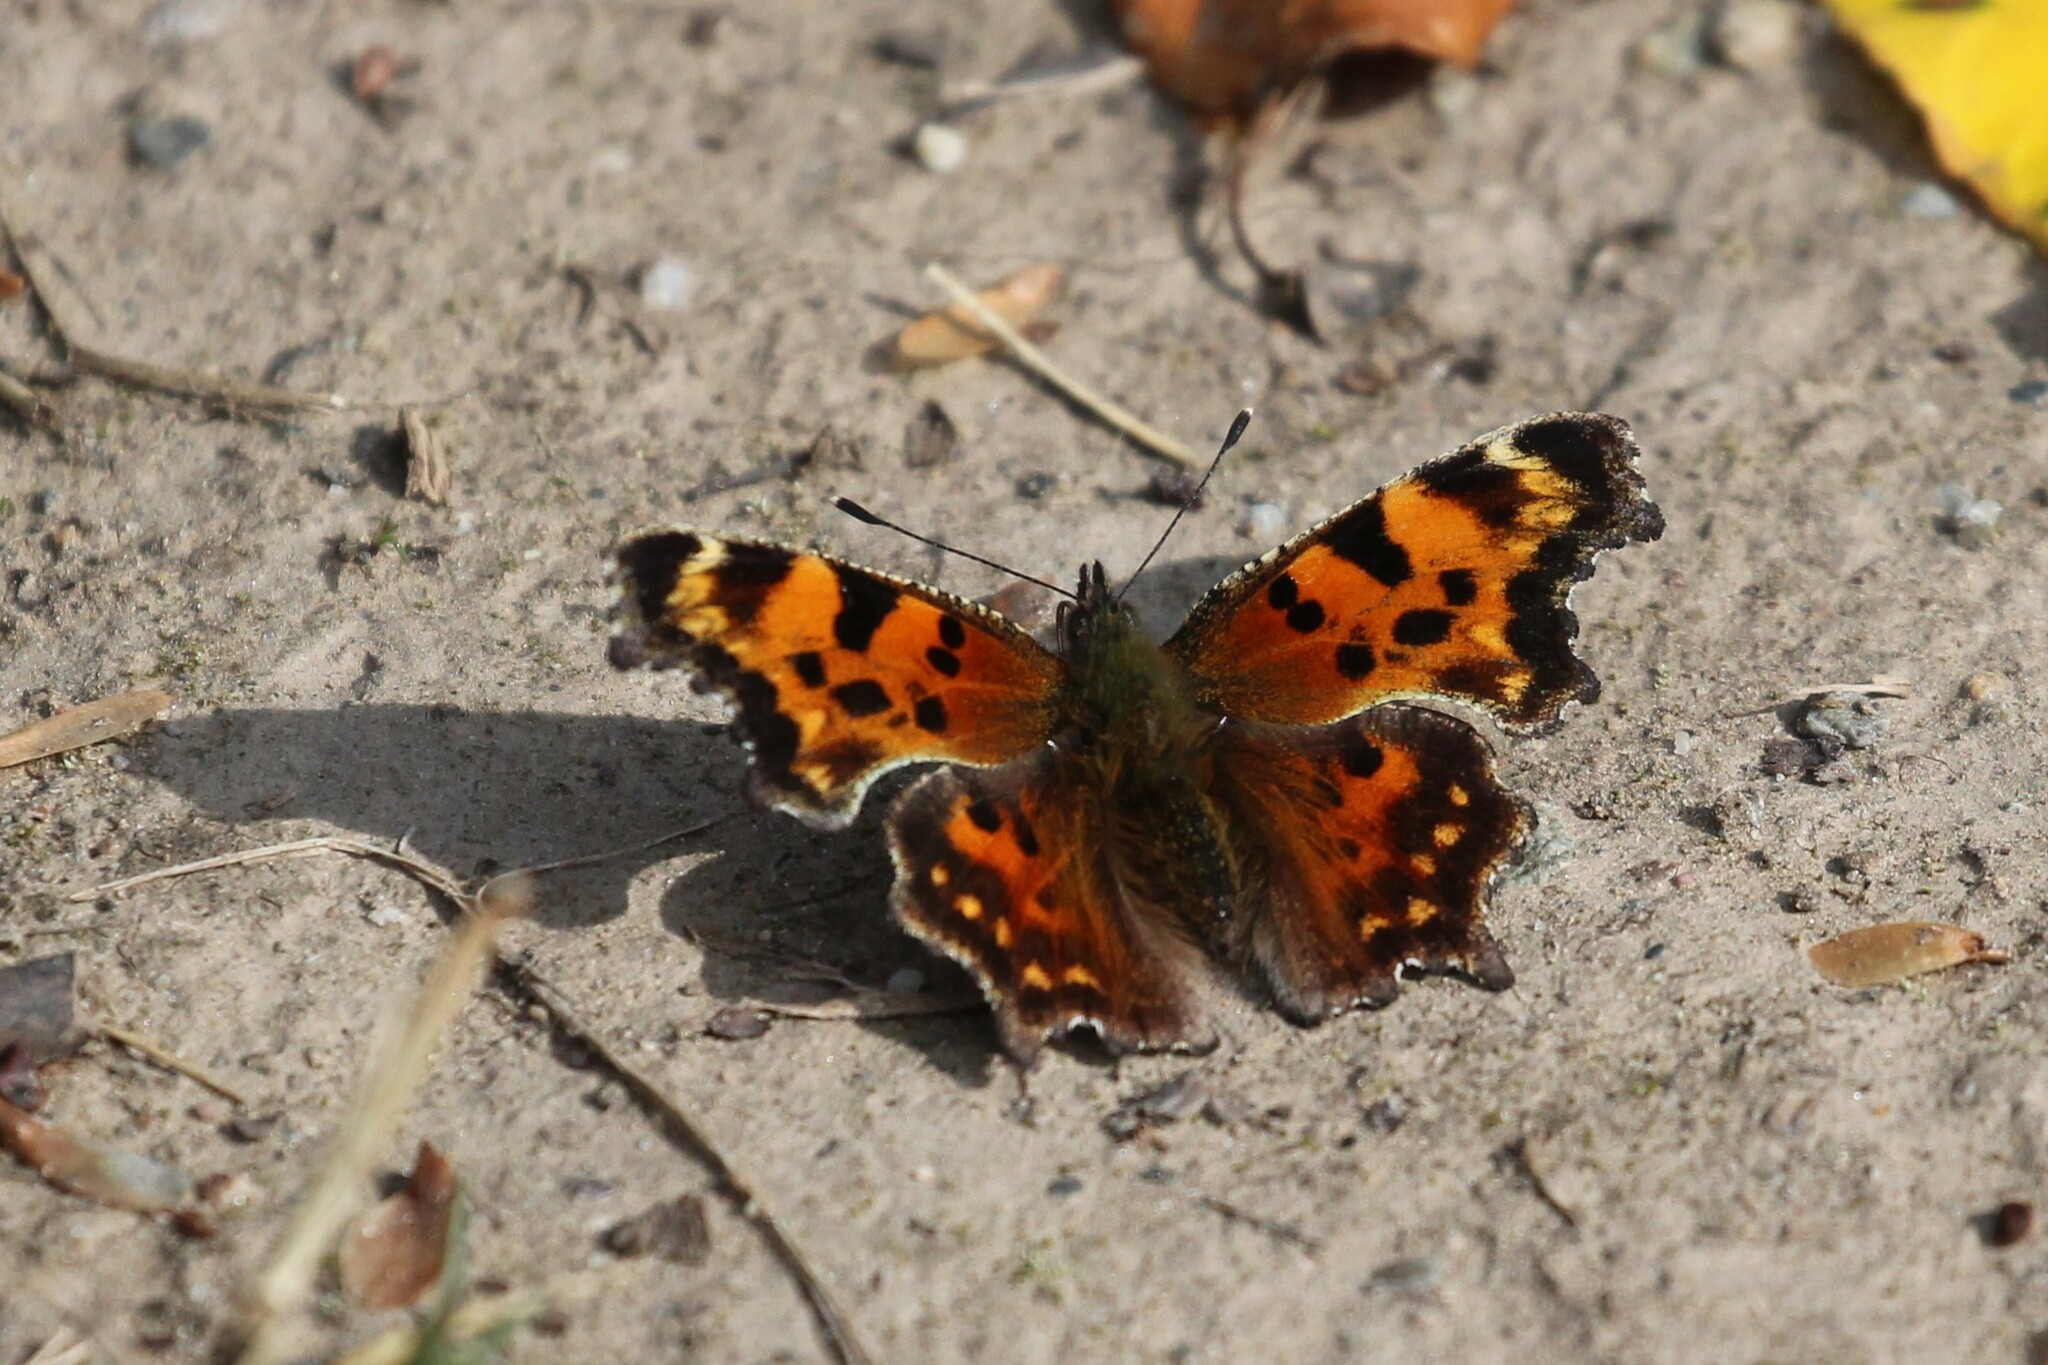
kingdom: Animalia
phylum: Arthropoda
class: Insecta
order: Lepidoptera
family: Nymphalidae
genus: Polygonia
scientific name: Polygonia faunus
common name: Green comma
